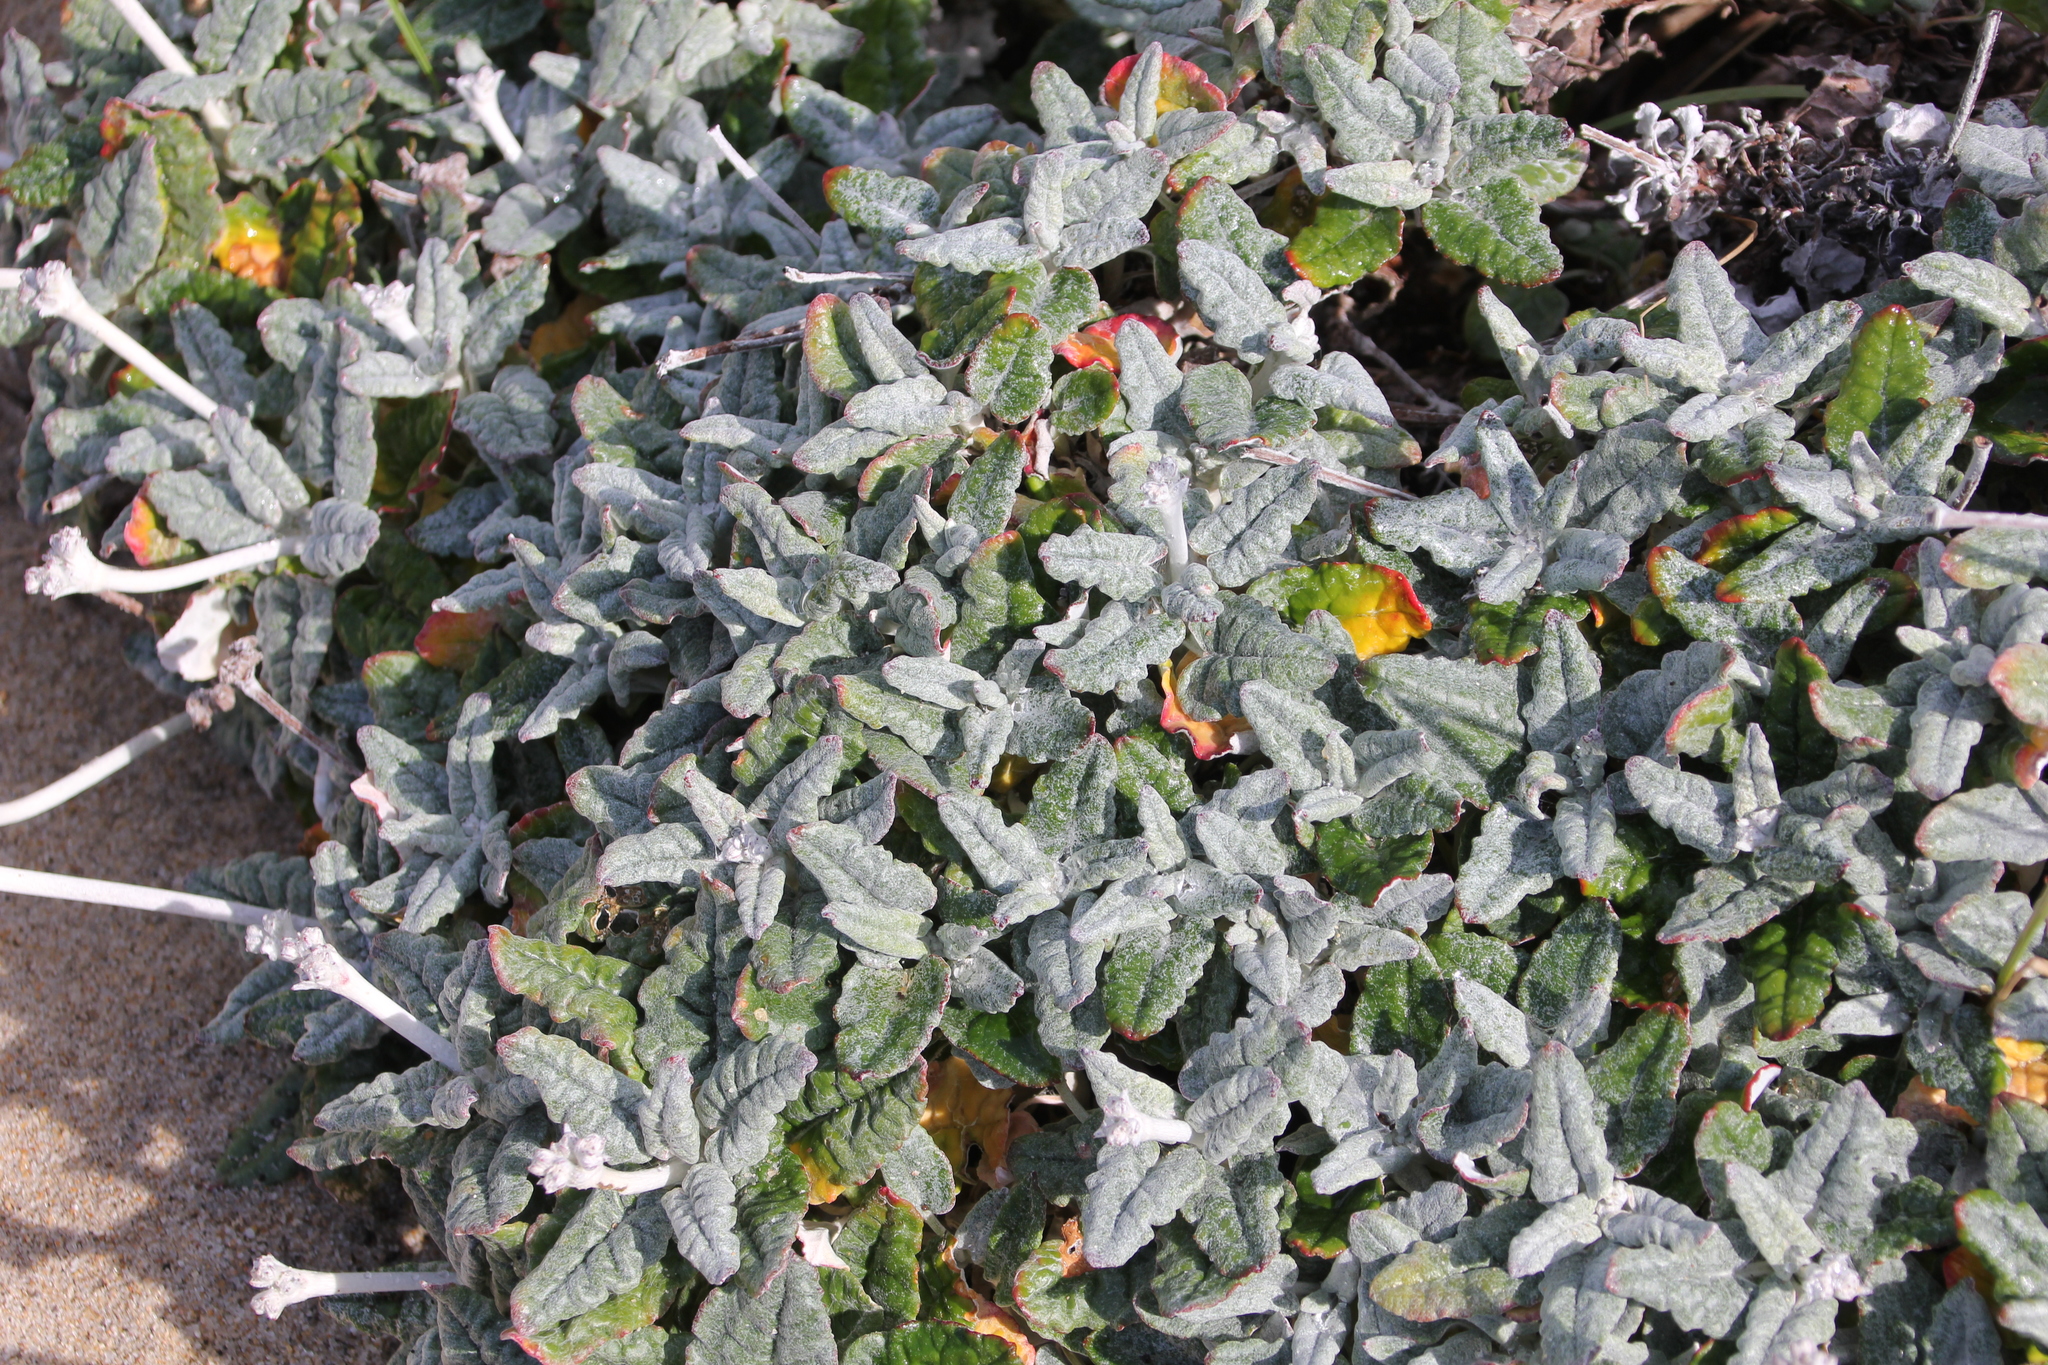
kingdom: Plantae
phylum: Tracheophyta
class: Magnoliopsida
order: Caryophyllales
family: Polygonaceae
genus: Eriogonum
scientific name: Eriogonum latifolium
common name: Seaside wild buckwheat
